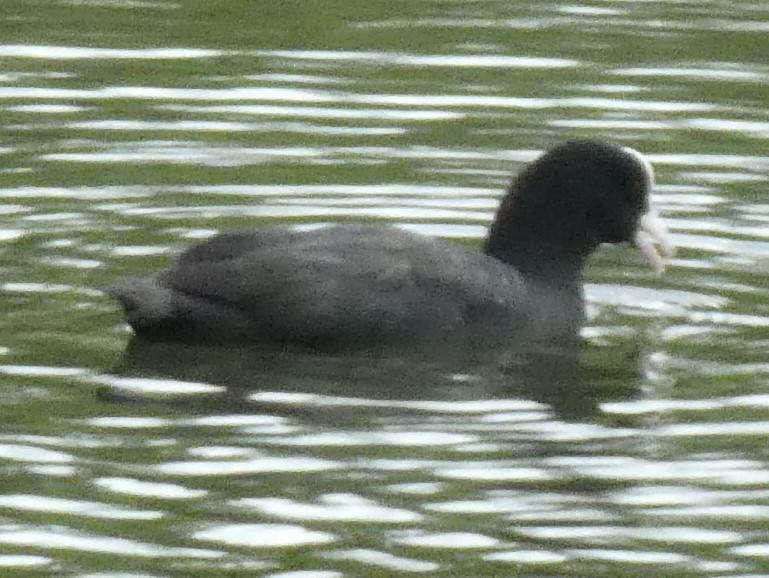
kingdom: Animalia
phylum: Chordata
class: Aves
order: Gruiformes
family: Rallidae
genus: Fulica
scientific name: Fulica atra
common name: Eurasian coot
